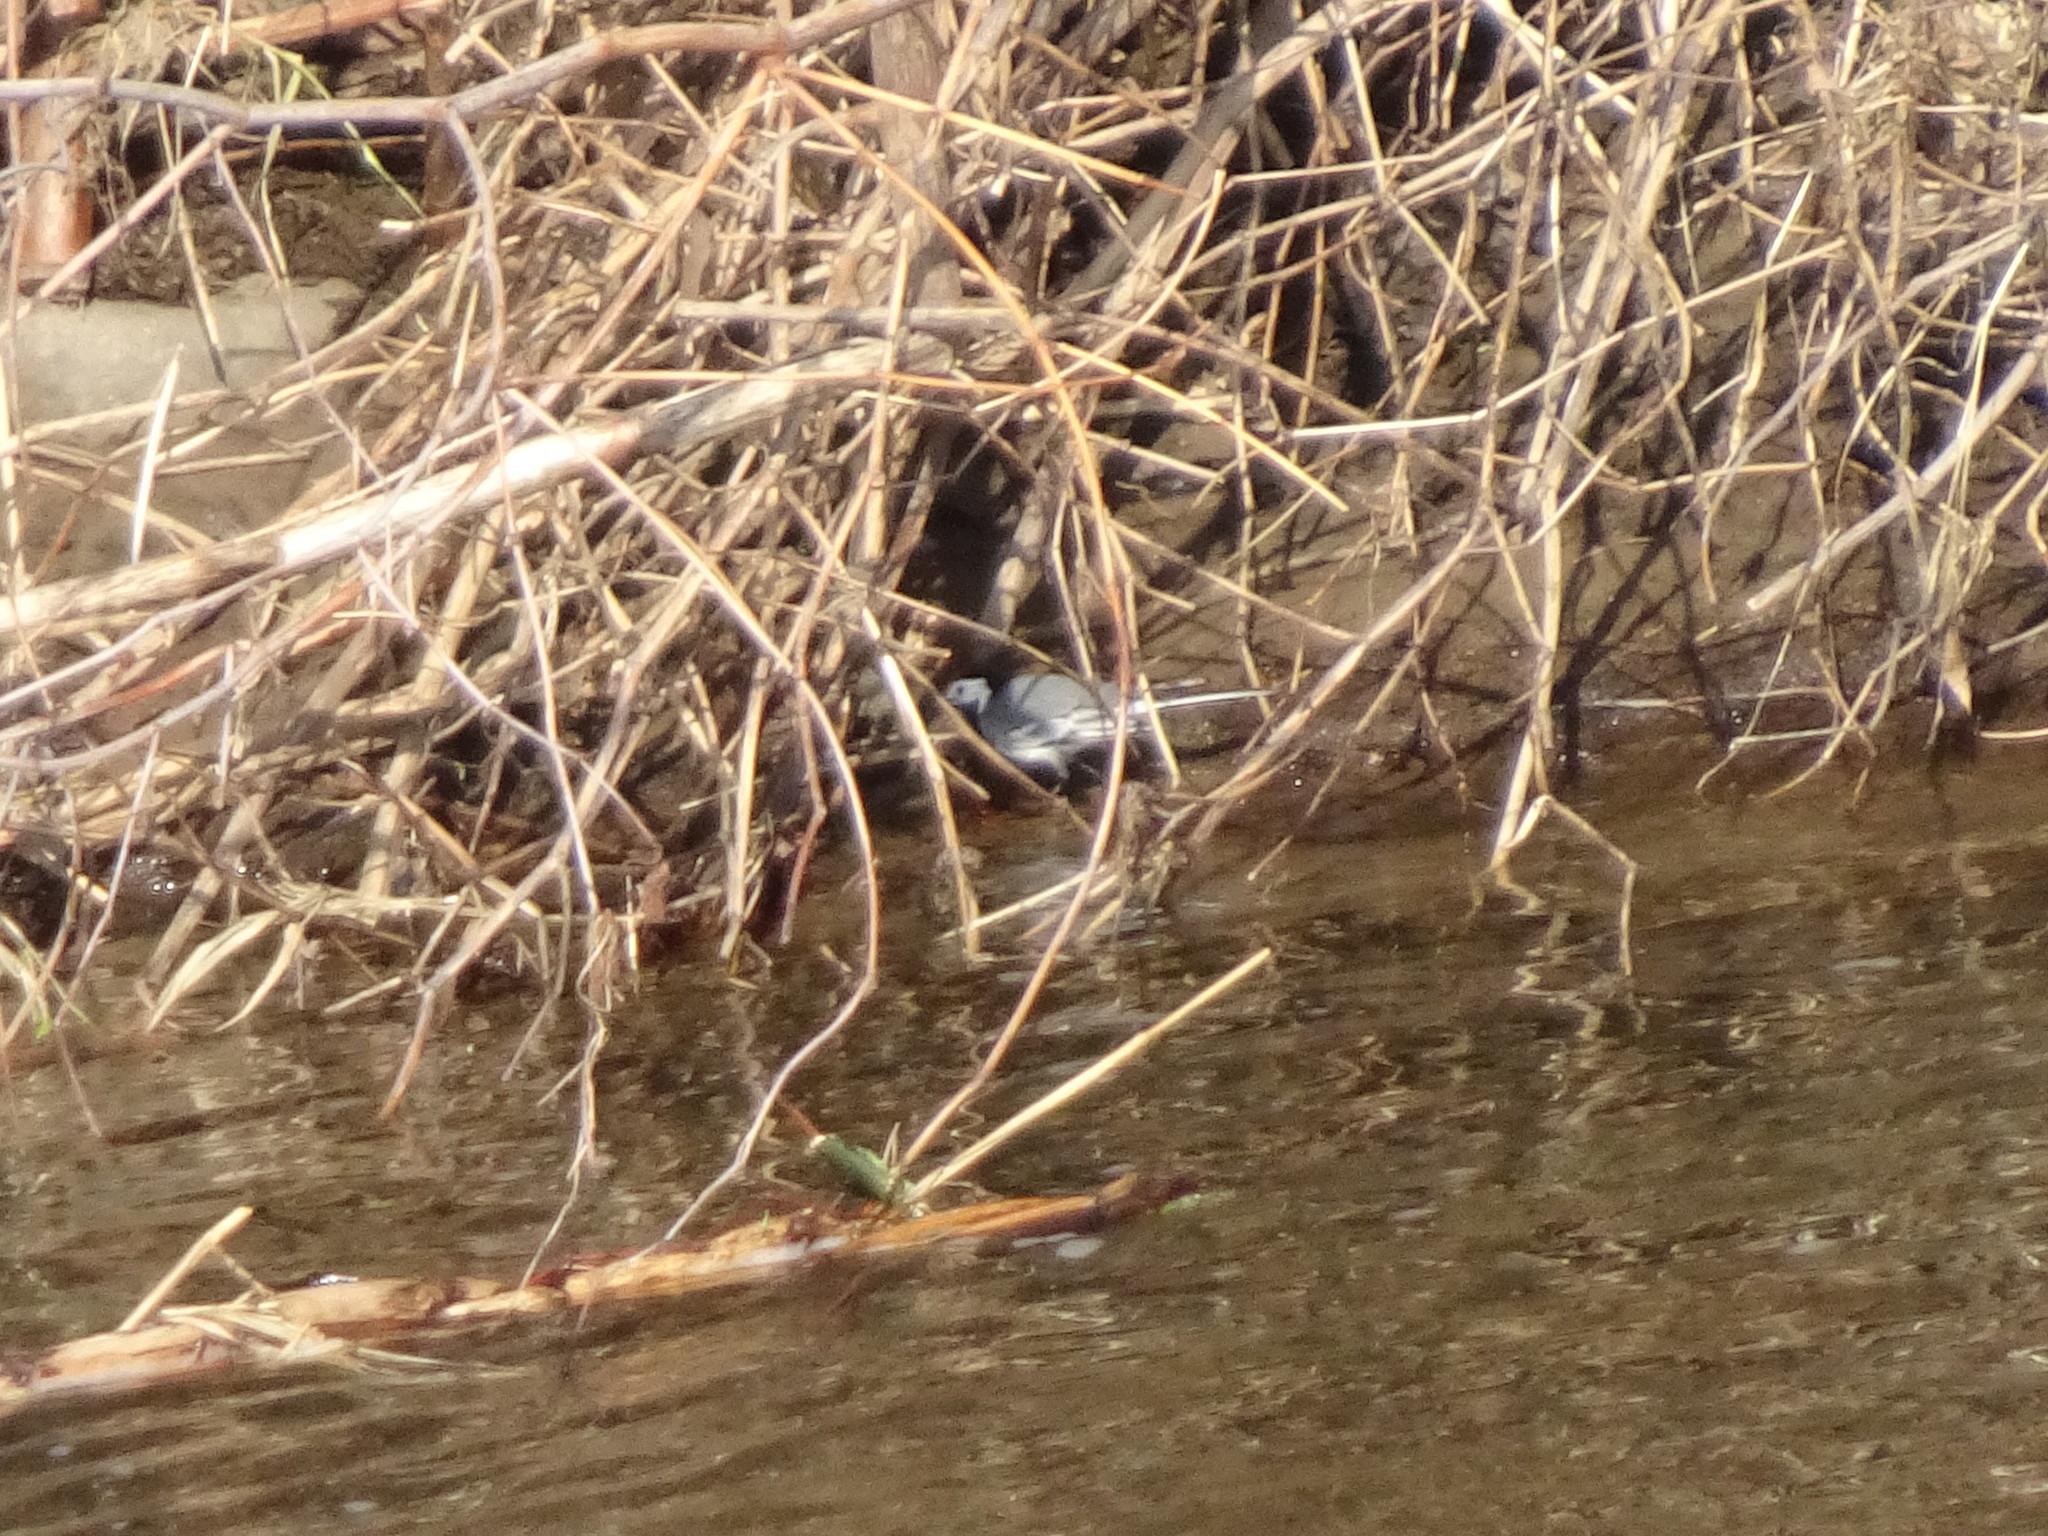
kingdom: Animalia
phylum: Chordata
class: Aves
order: Passeriformes
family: Motacillidae
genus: Motacilla
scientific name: Motacilla alba
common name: White wagtail
